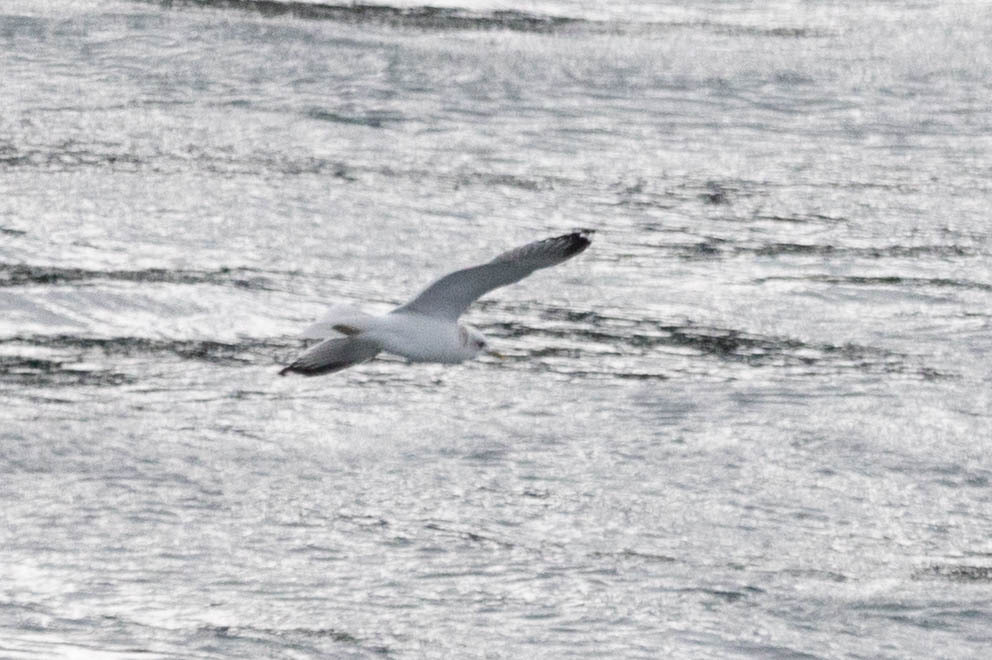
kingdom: Animalia
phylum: Chordata
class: Aves
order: Charadriiformes
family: Laridae
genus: Larus
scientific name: Larus brachyrhynchus
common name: Short-billed gull
